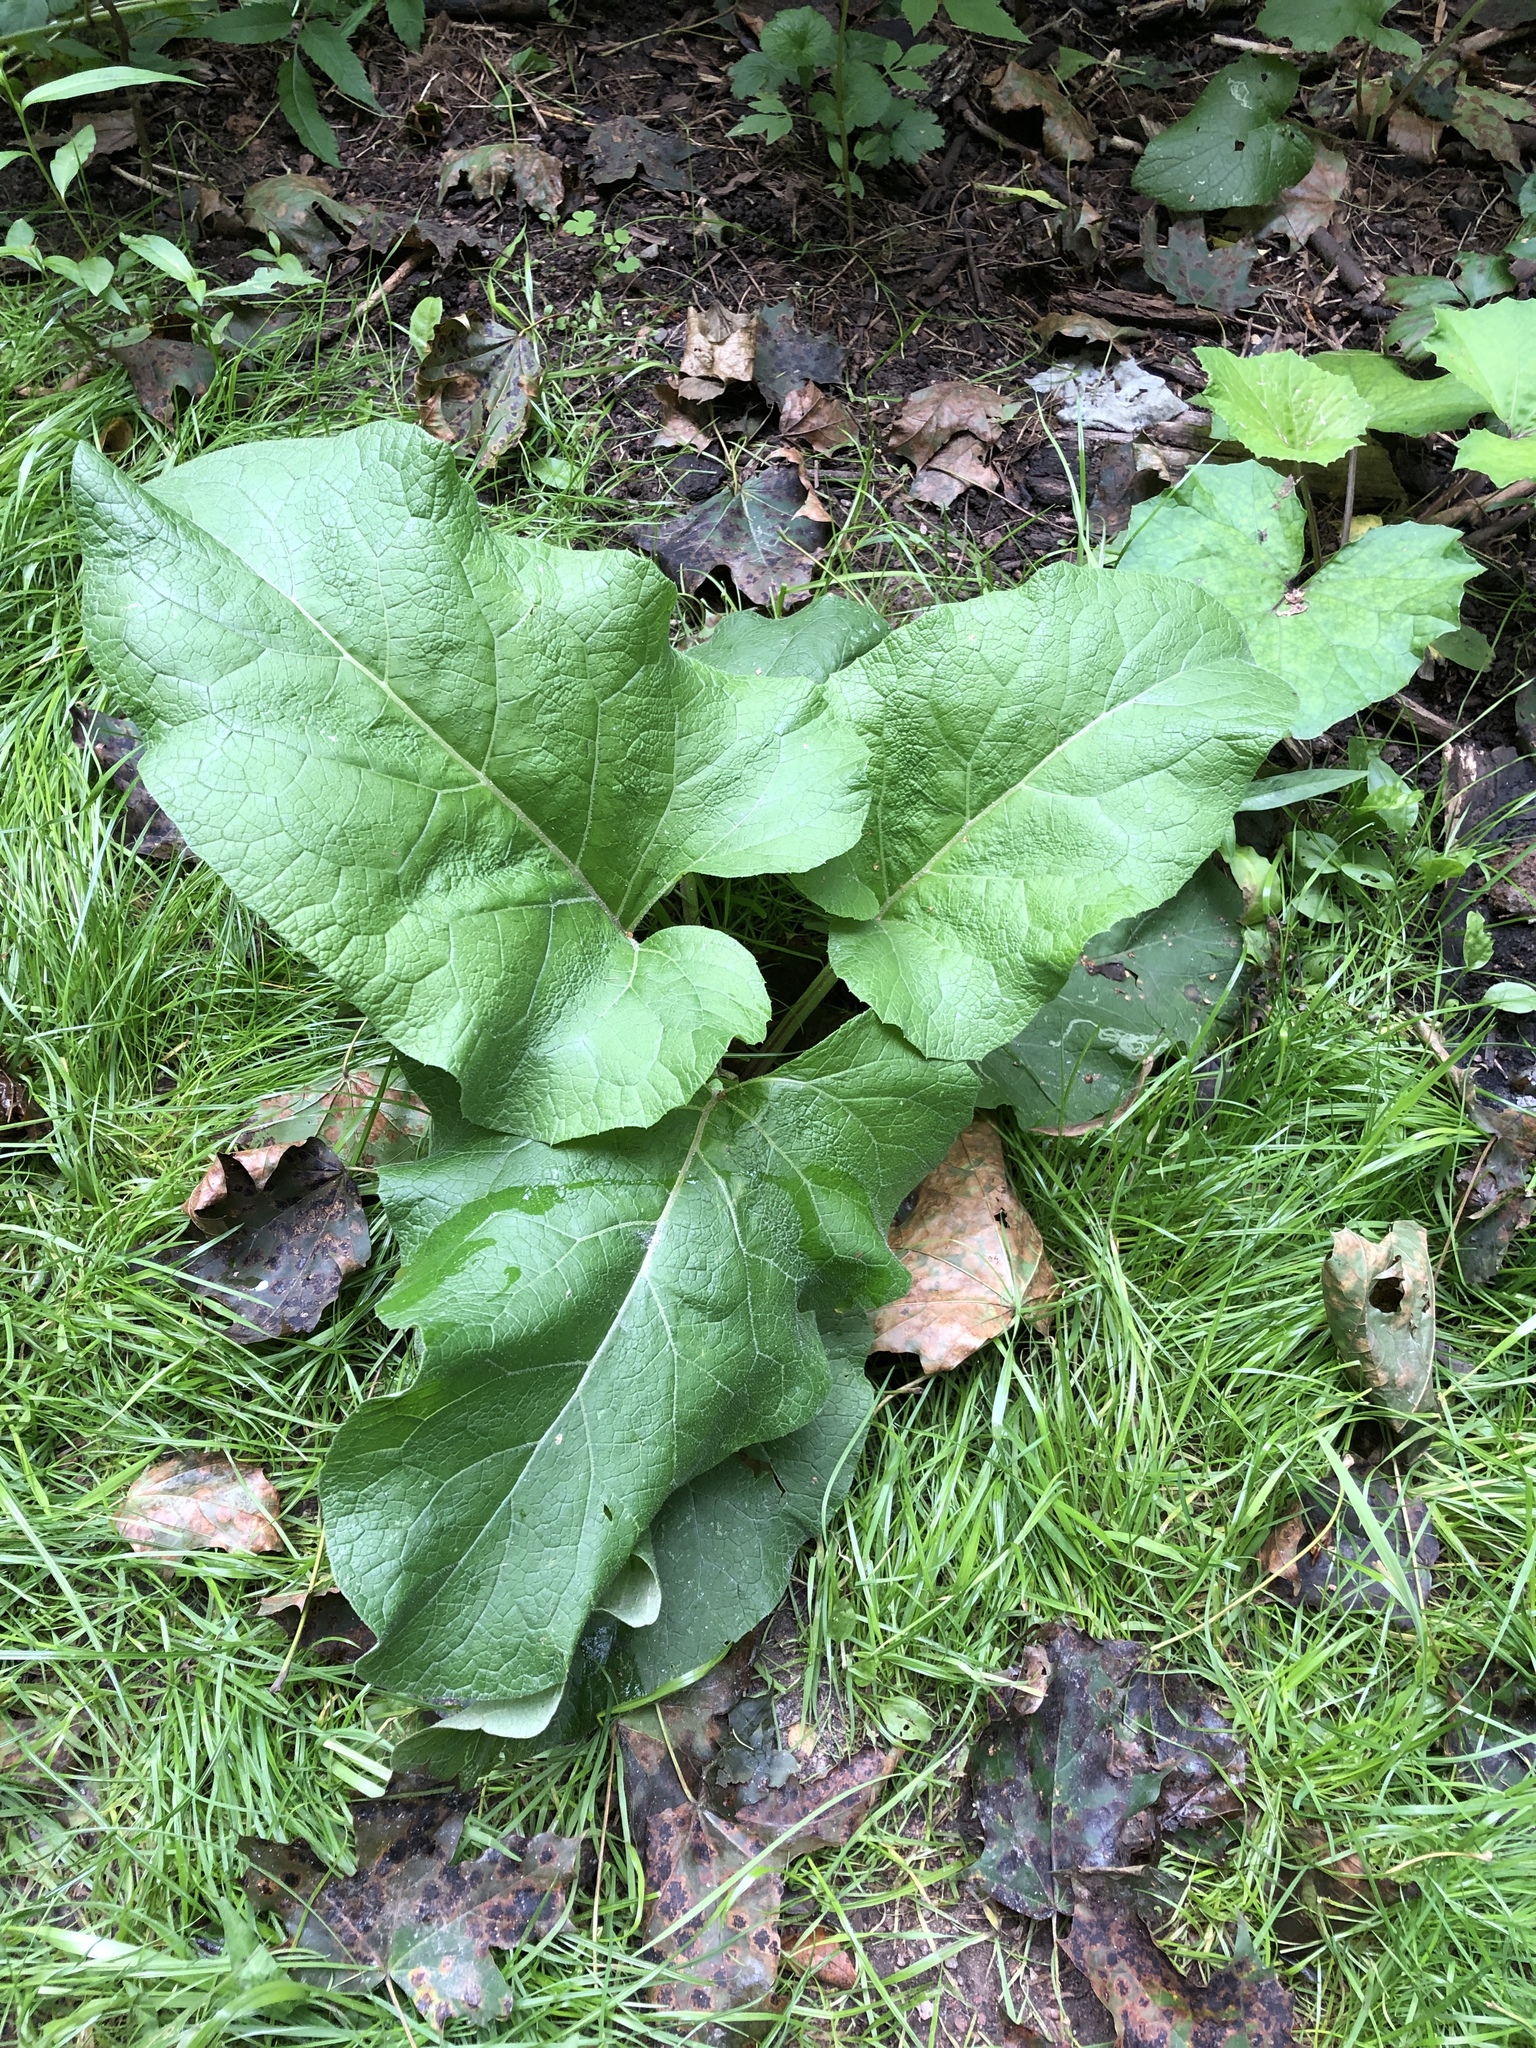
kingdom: Plantae
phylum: Tracheophyta
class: Magnoliopsida
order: Asterales
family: Asteraceae
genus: Arctium
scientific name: Arctium
